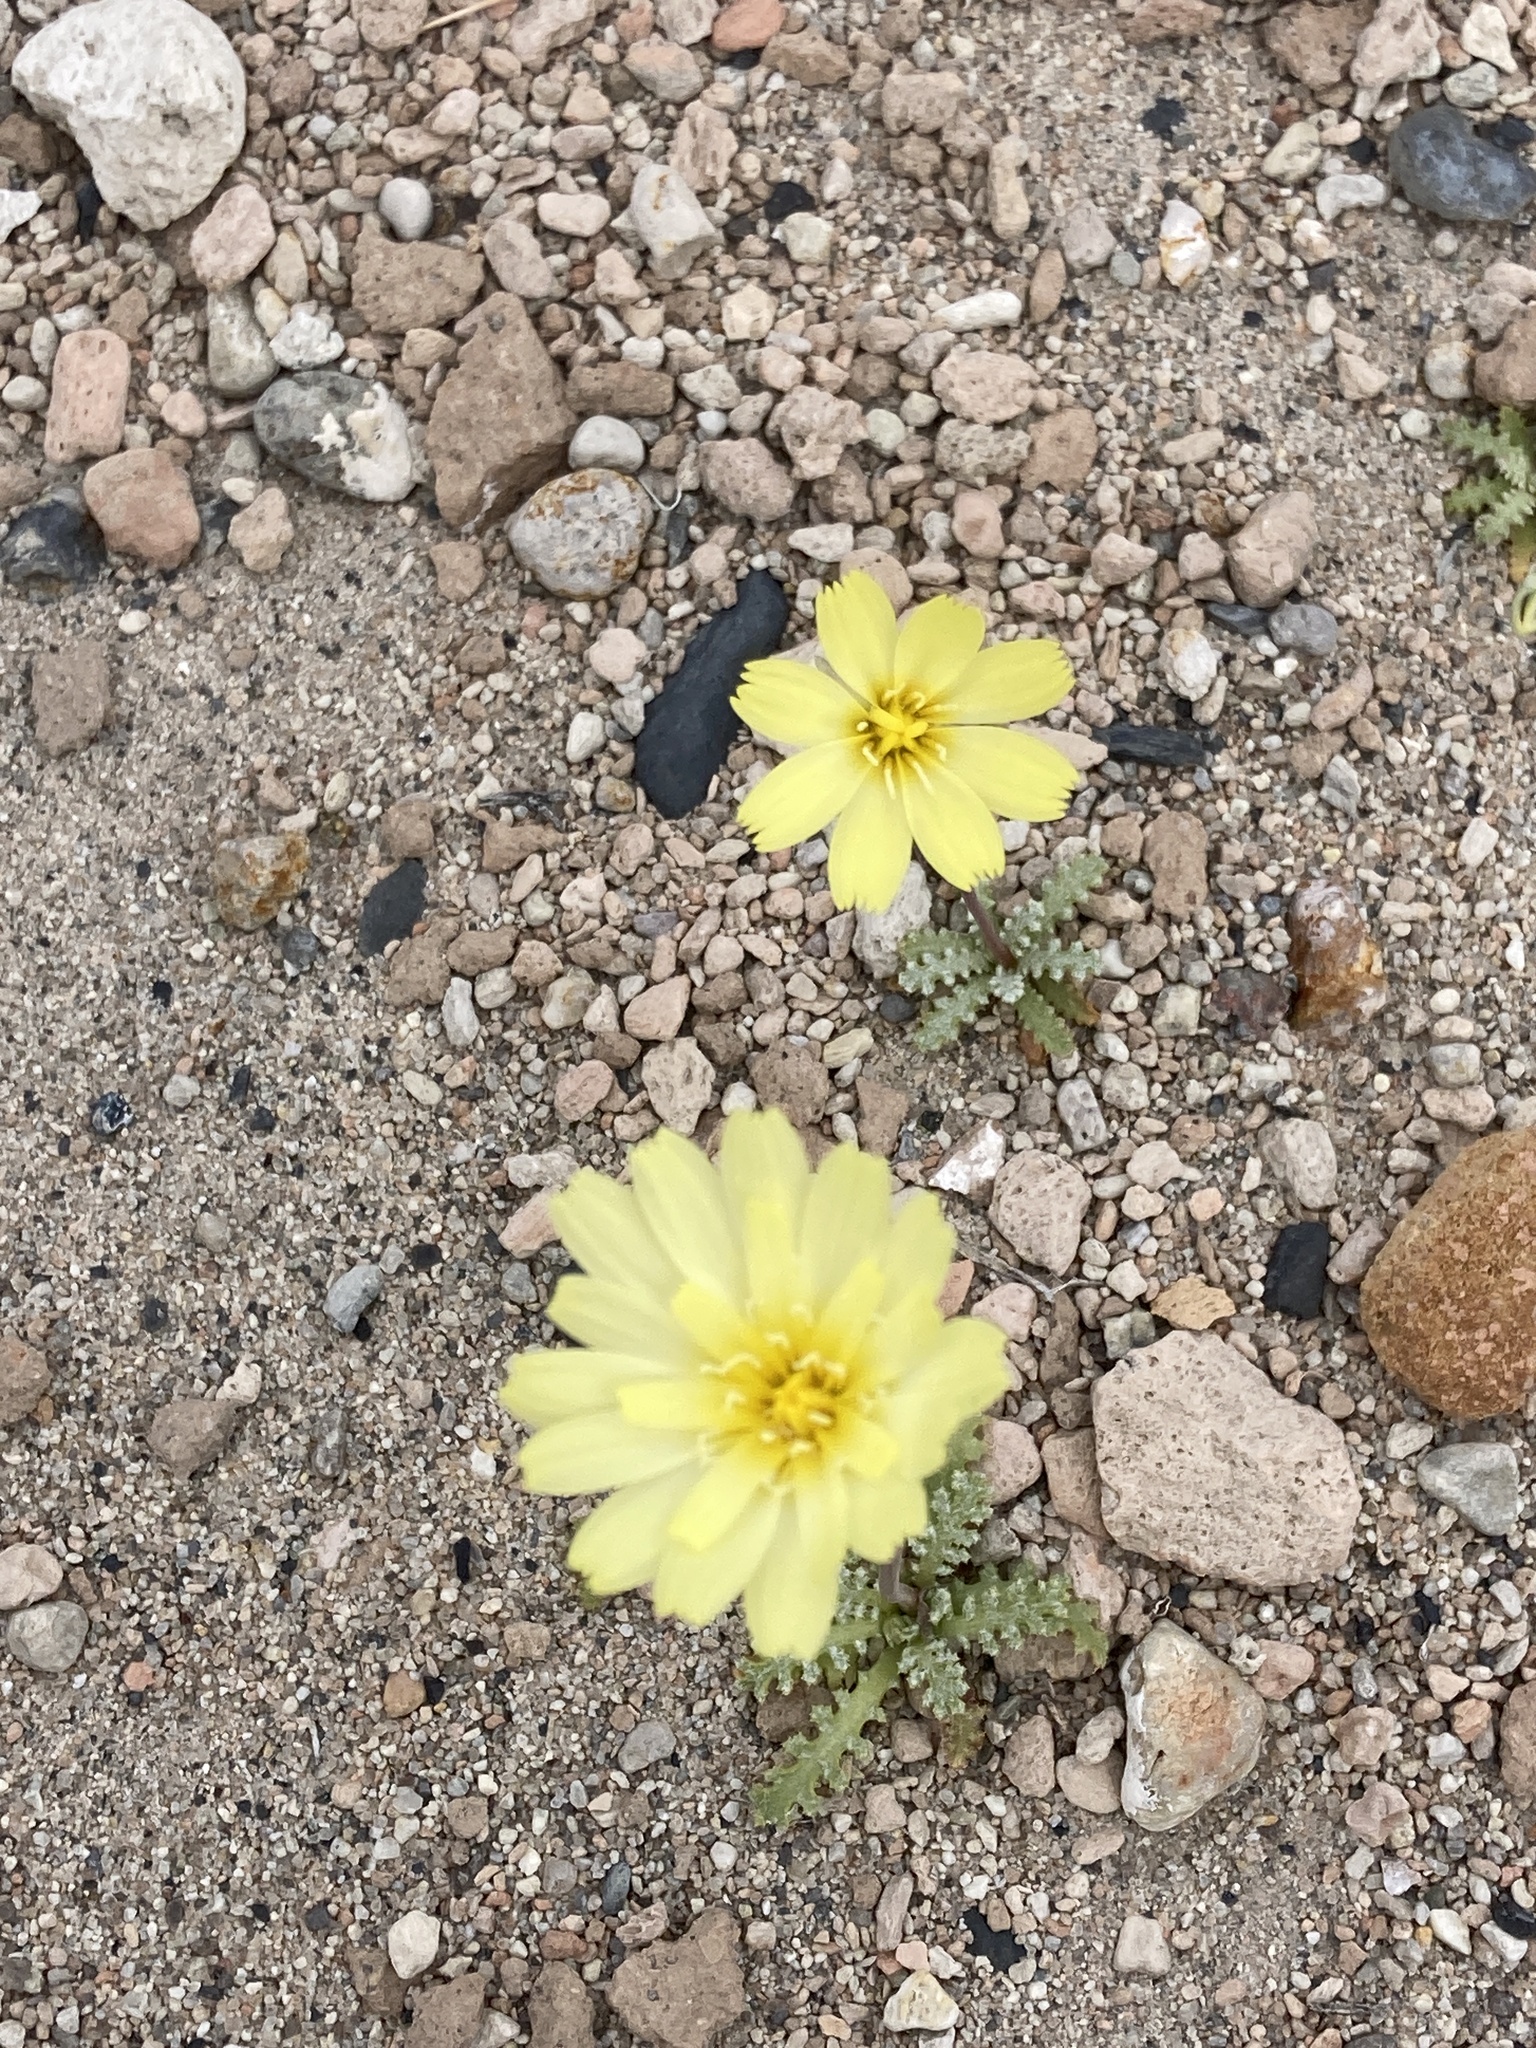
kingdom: Plantae
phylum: Tracheophyta
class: Magnoliopsida
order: Asterales
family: Asteraceae
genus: Anisocoma
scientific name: Anisocoma acaulis
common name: Scalebud
